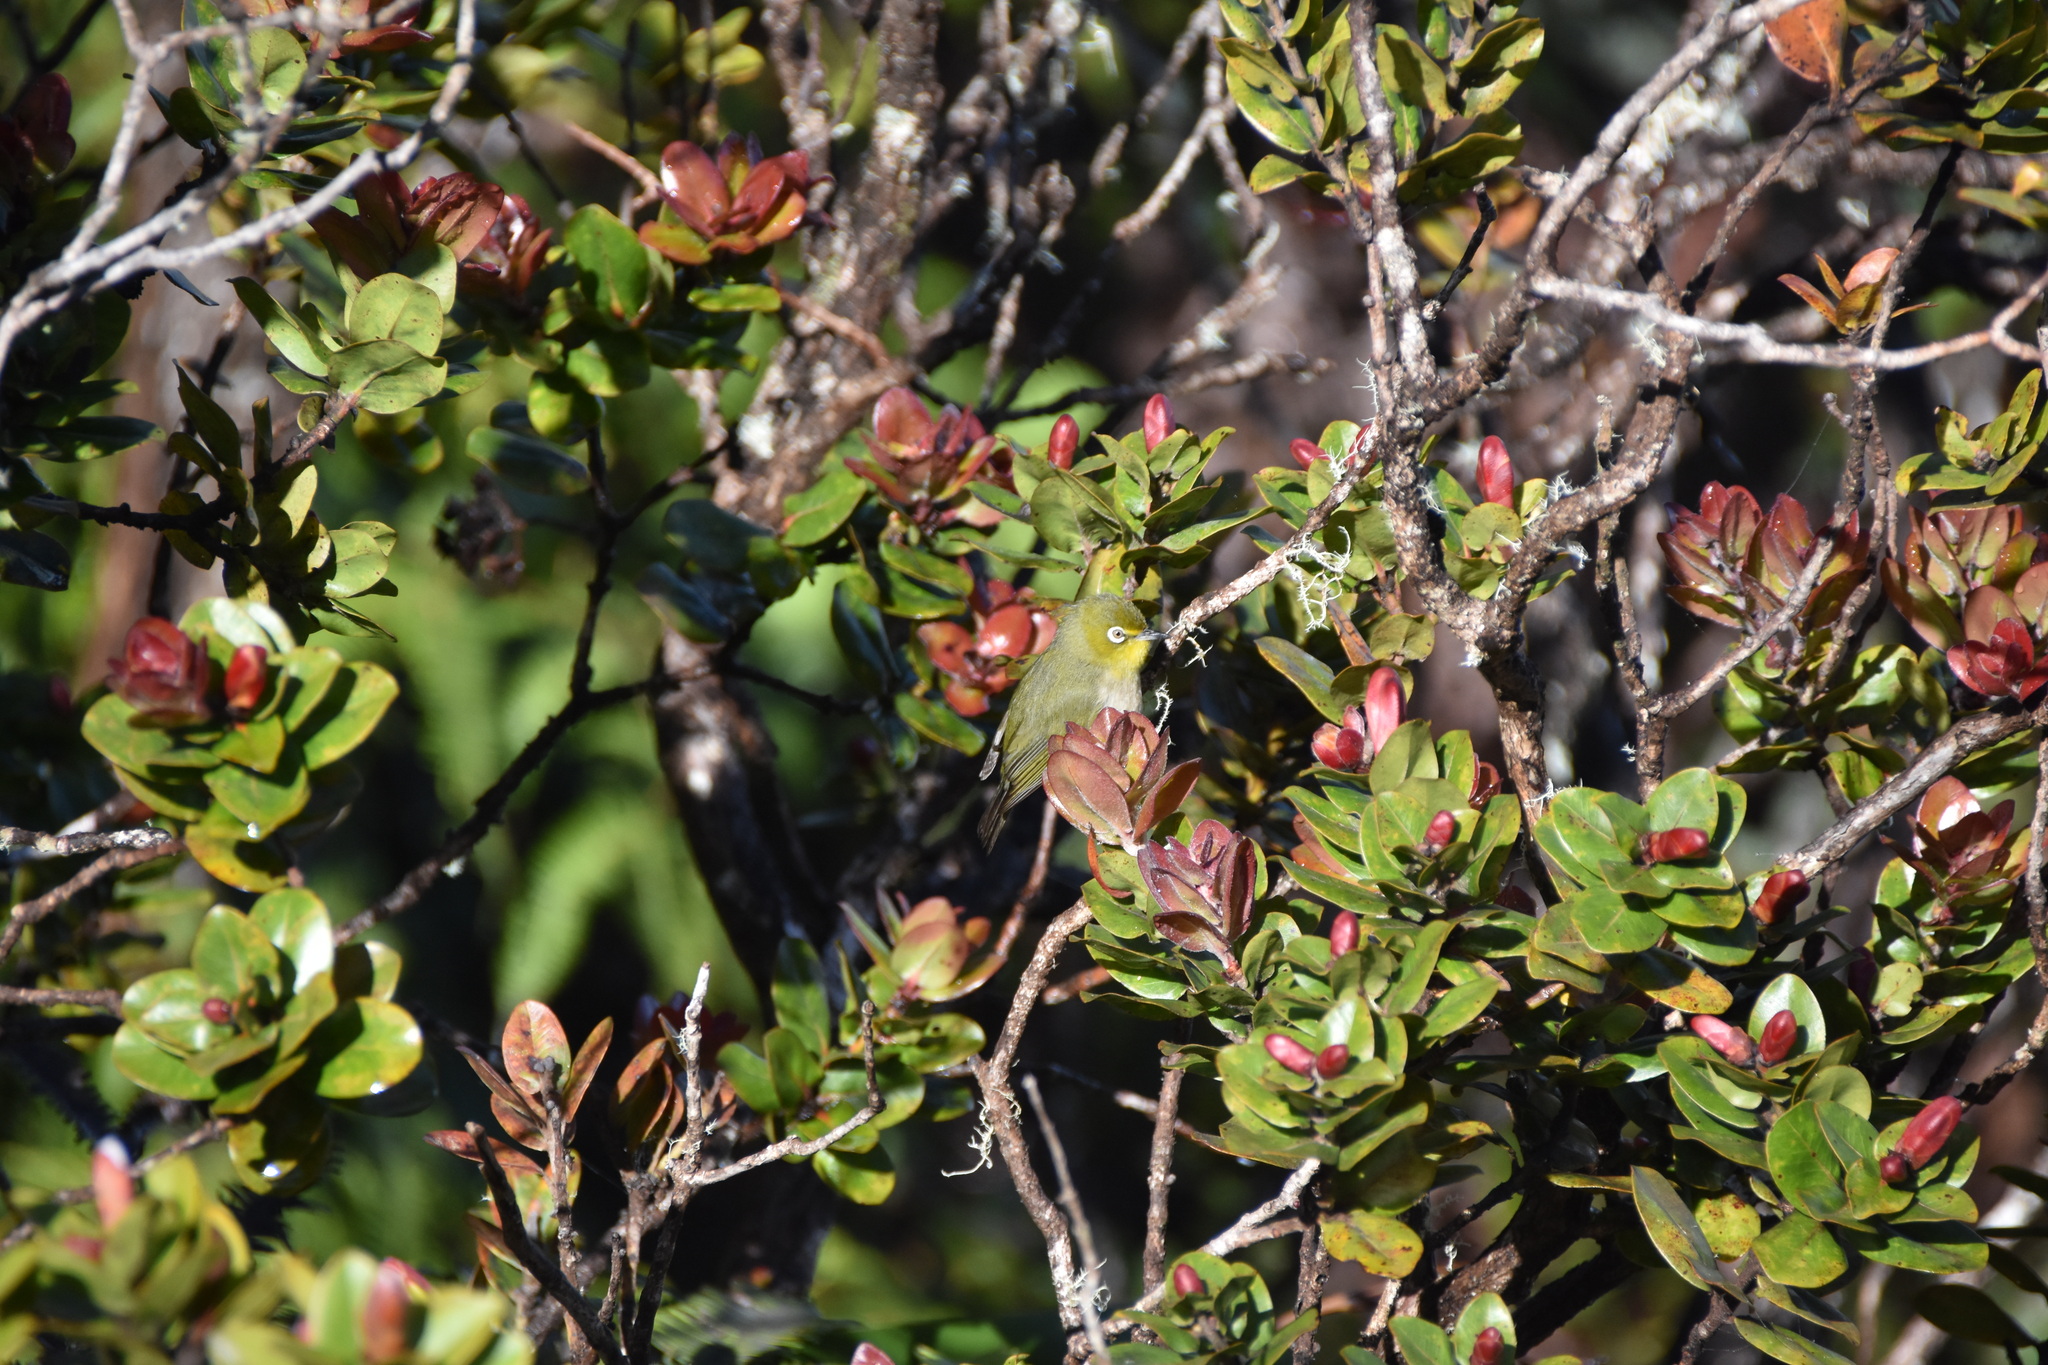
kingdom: Plantae
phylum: Tracheophyta
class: Magnoliopsida
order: Myrtales
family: Myrtaceae
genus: Metrosideros
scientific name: Metrosideros polymorpha
